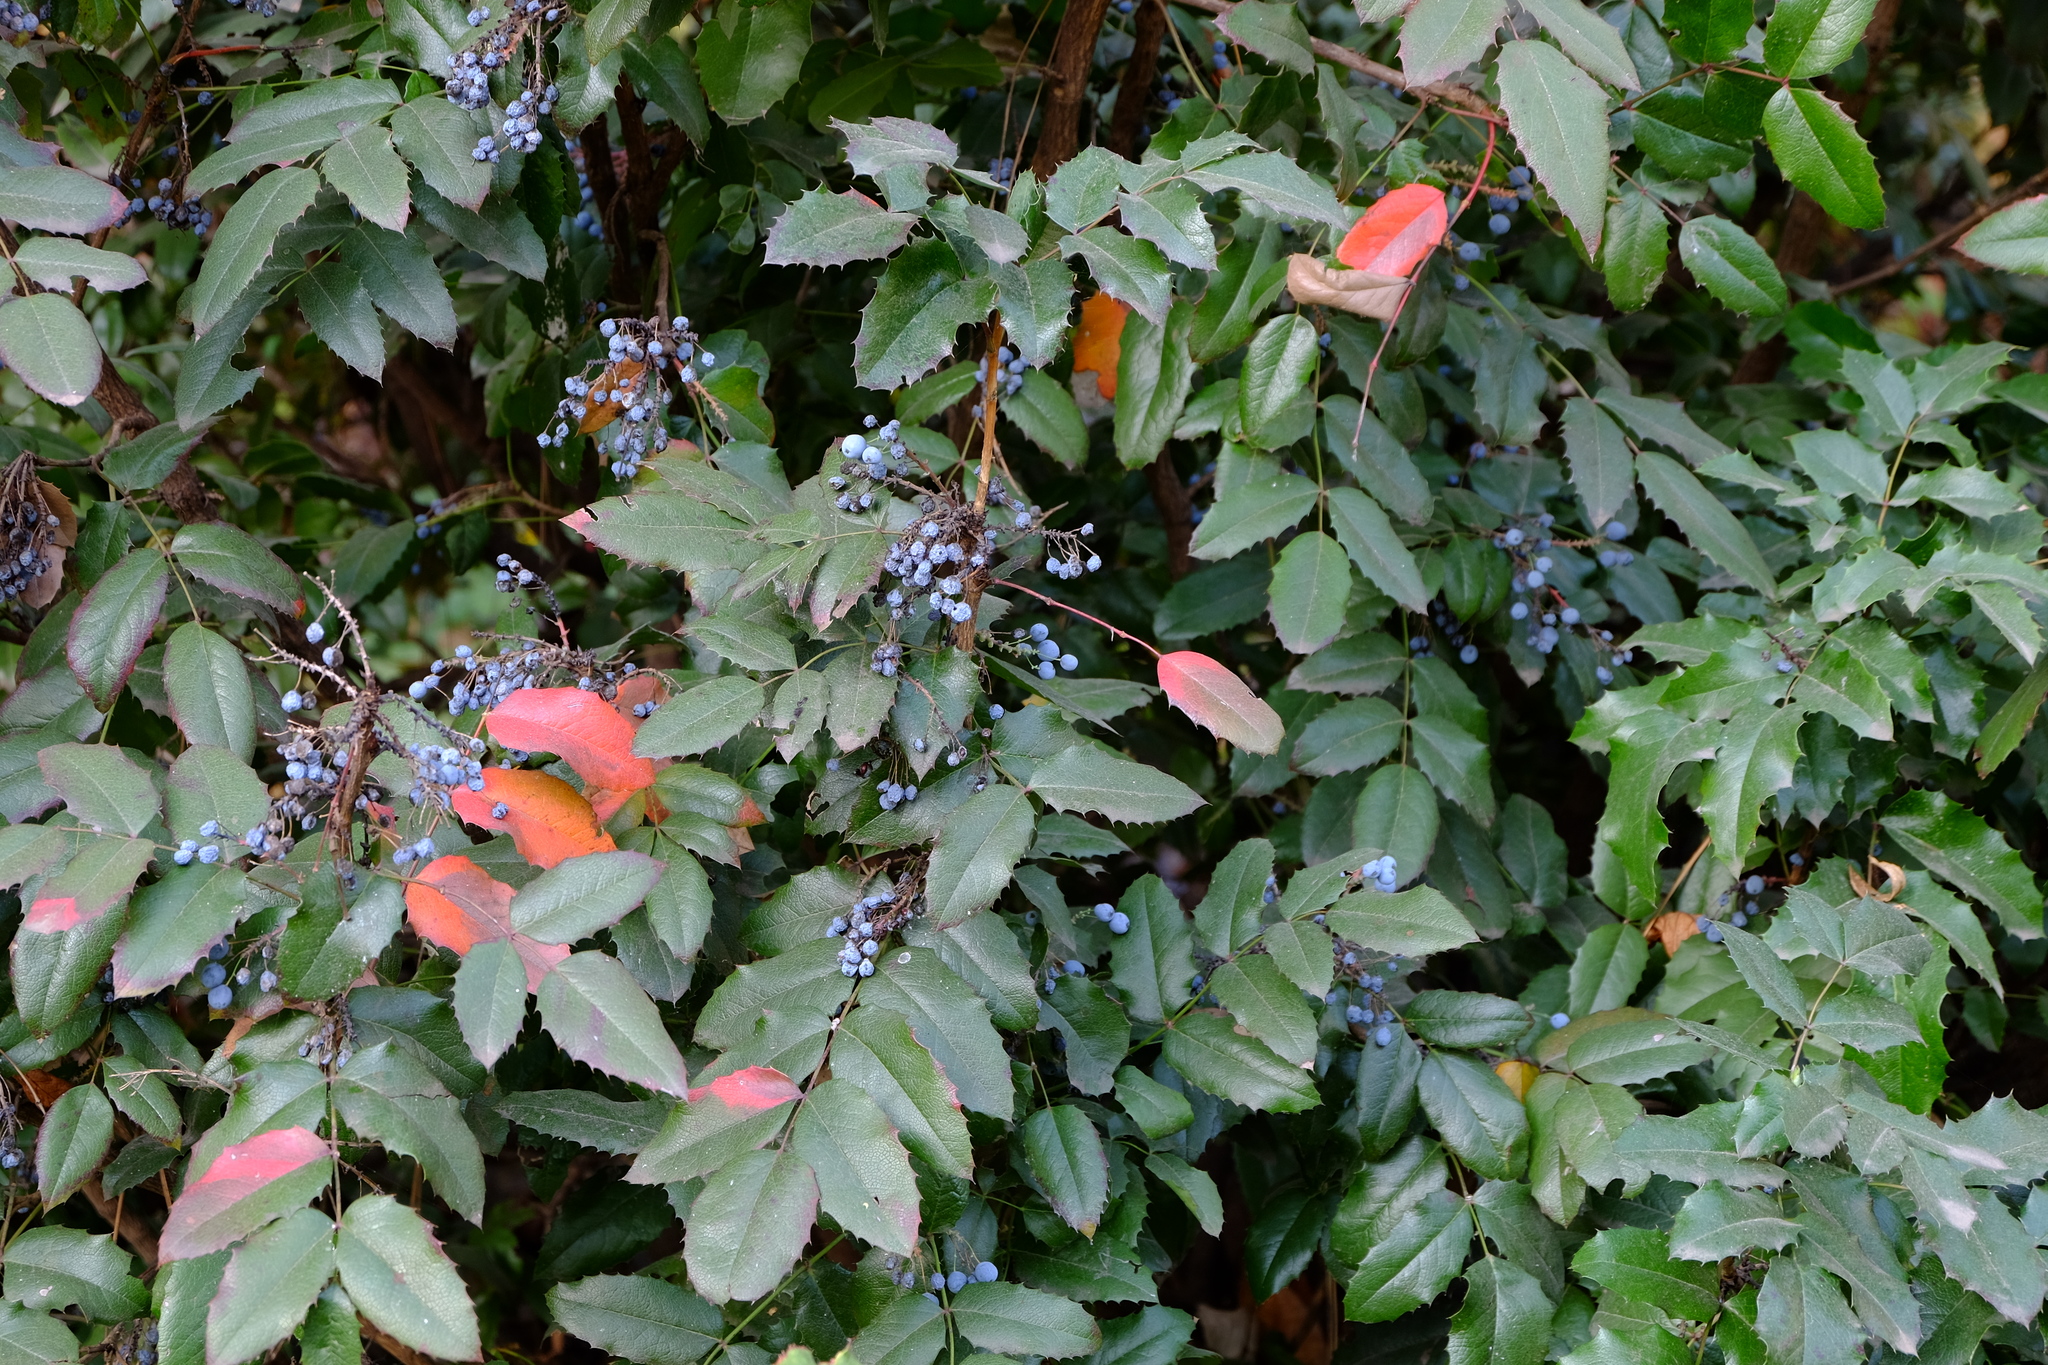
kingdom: Plantae
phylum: Tracheophyta
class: Magnoliopsida
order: Ranunculales
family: Berberidaceae
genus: Mahonia
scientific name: Mahonia aquifolium
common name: Oregon-grape
